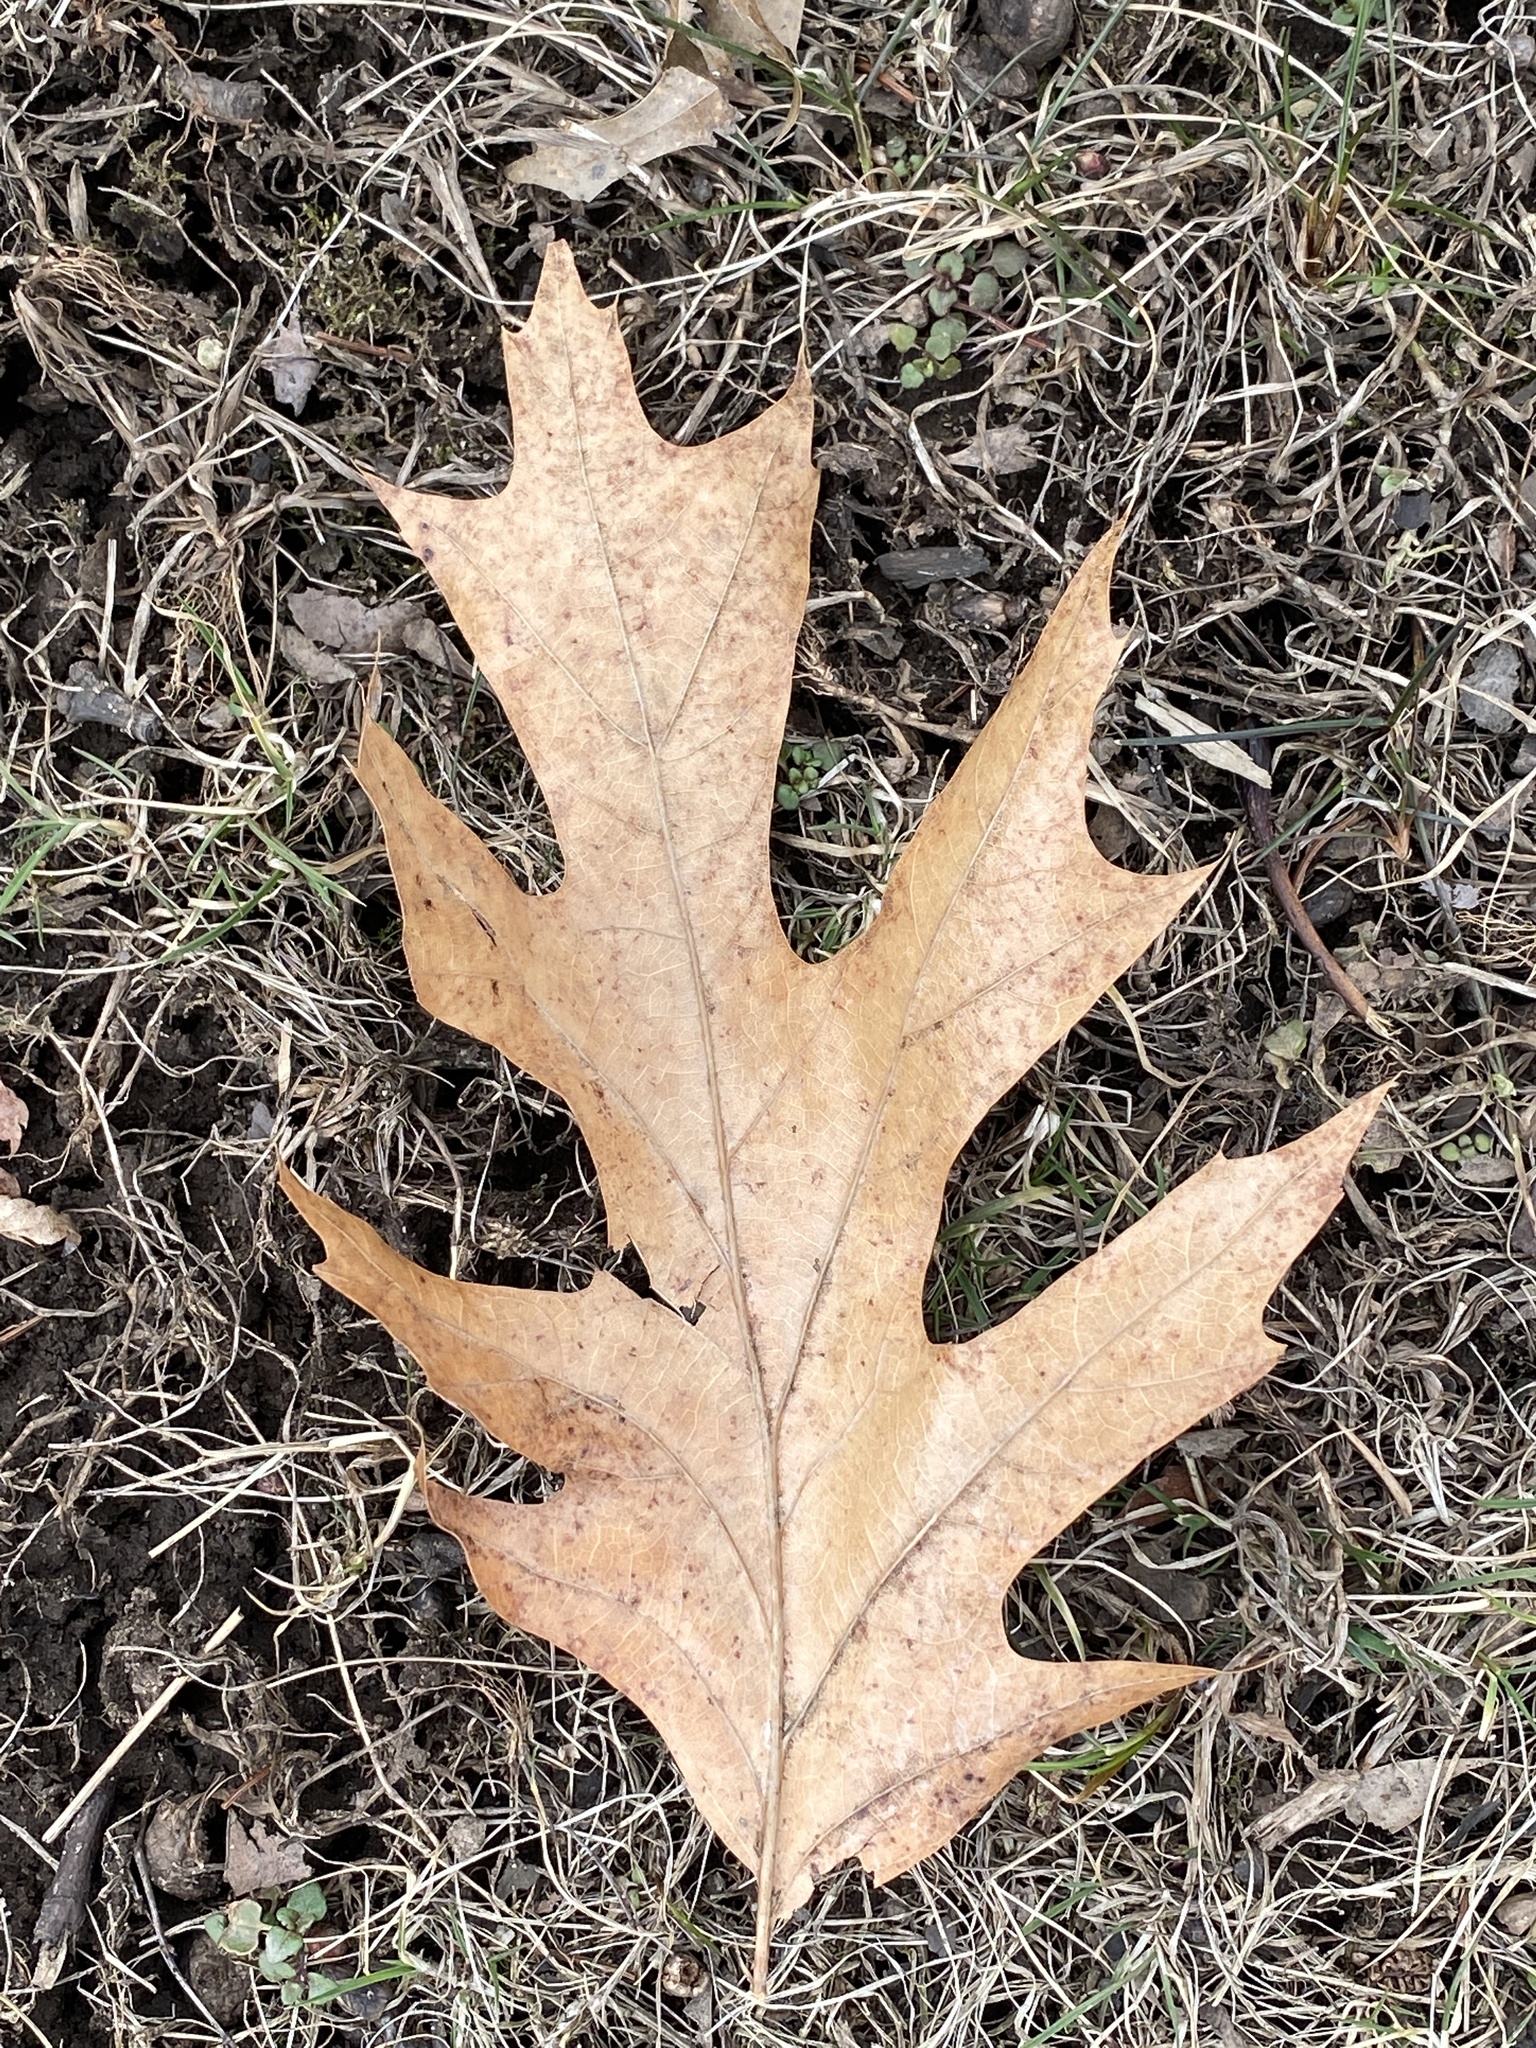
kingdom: Plantae
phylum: Tracheophyta
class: Magnoliopsida
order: Fagales
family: Fagaceae
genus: Quercus
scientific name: Quercus rubra
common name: Red oak
